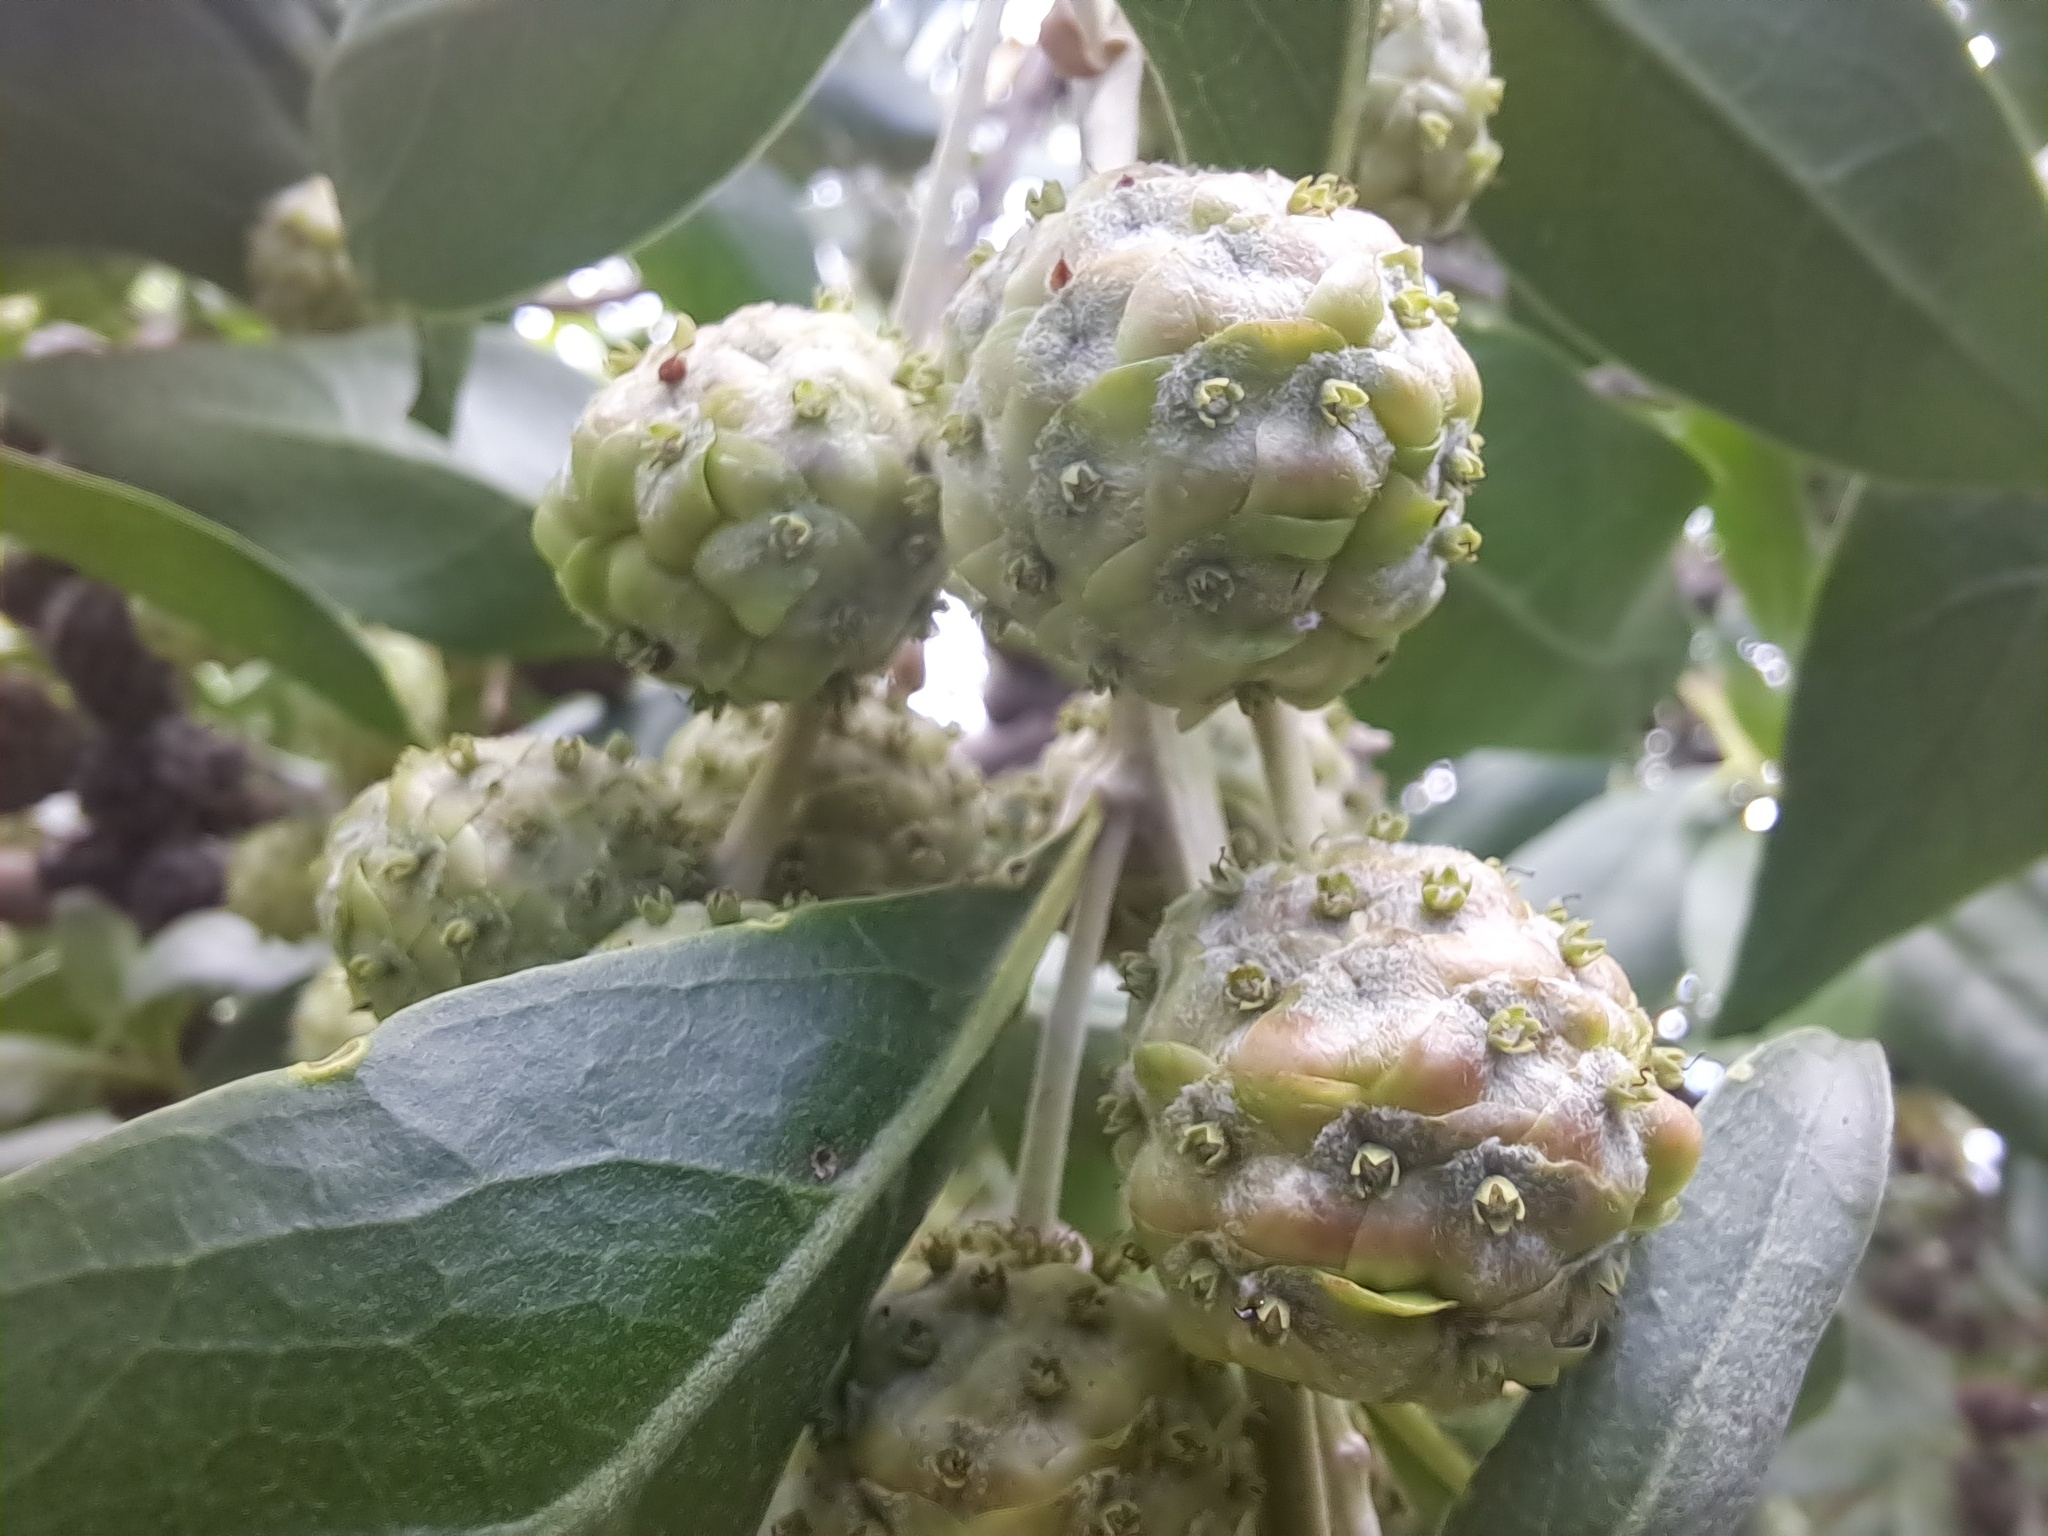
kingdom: Plantae
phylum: Tracheophyta
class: Magnoliopsida
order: Myrtales
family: Combretaceae
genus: Conocarpus
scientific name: Conocarpus erectus
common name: Button mangrove
